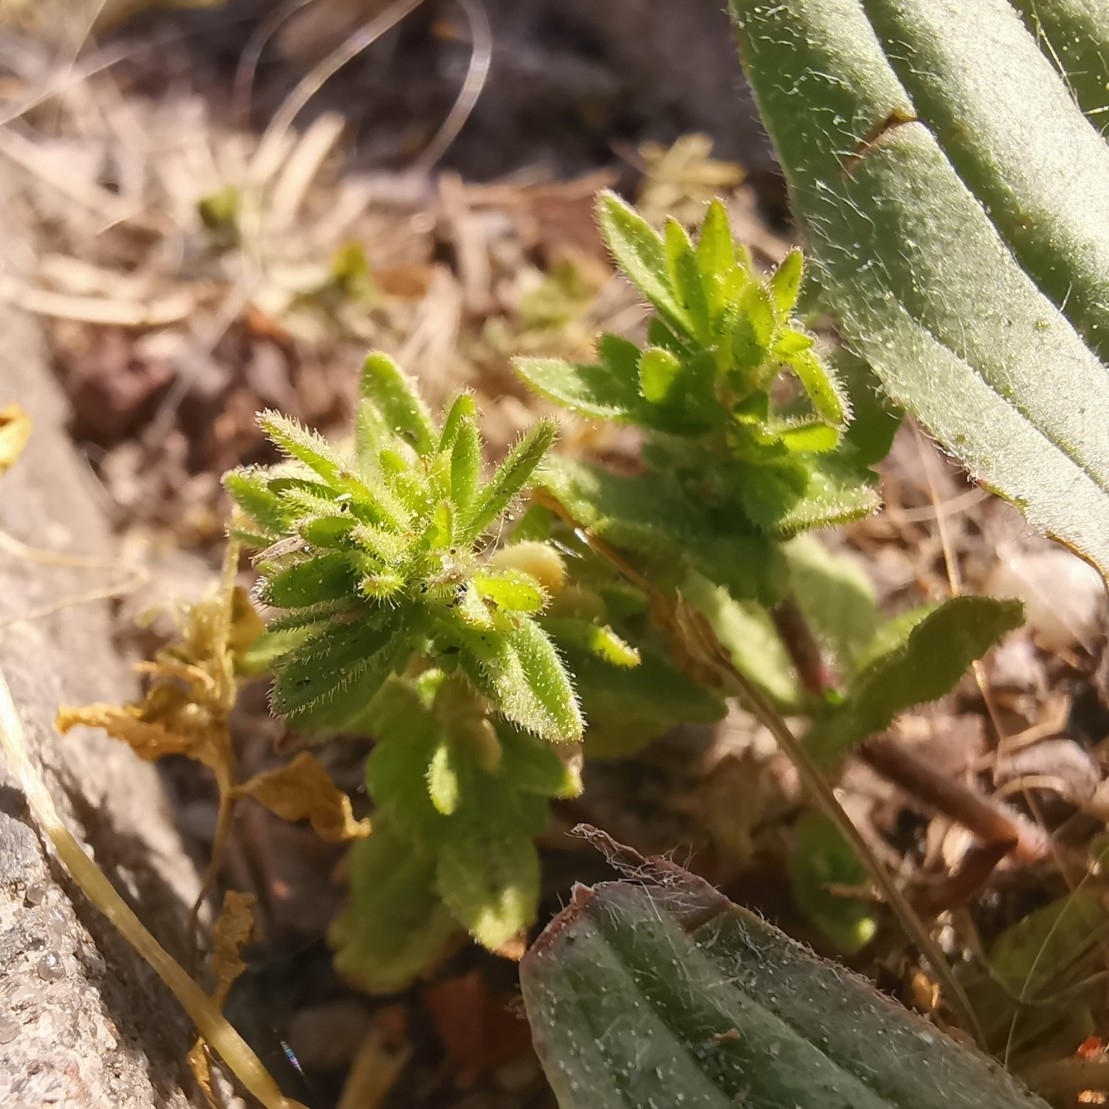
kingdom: Plantae
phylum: Tracheophyta
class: Magnoliopsida
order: Lamiales
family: Plantaginaceae
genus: Veronica
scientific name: Veronica arvensis
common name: Corn speedwell
